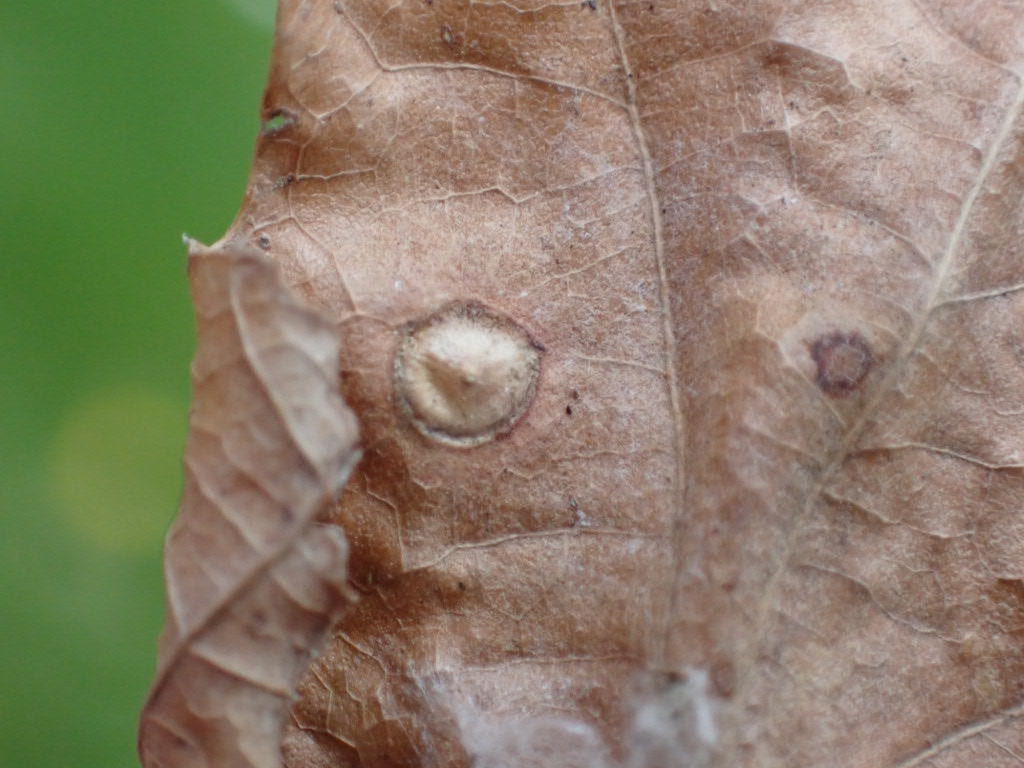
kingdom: Animalia
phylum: Arthropoda
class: Insecta
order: Hymenoptera
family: Cynipidae
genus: Neuroterus
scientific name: Neuroterus numismalis
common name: Silk-button spangle gall
